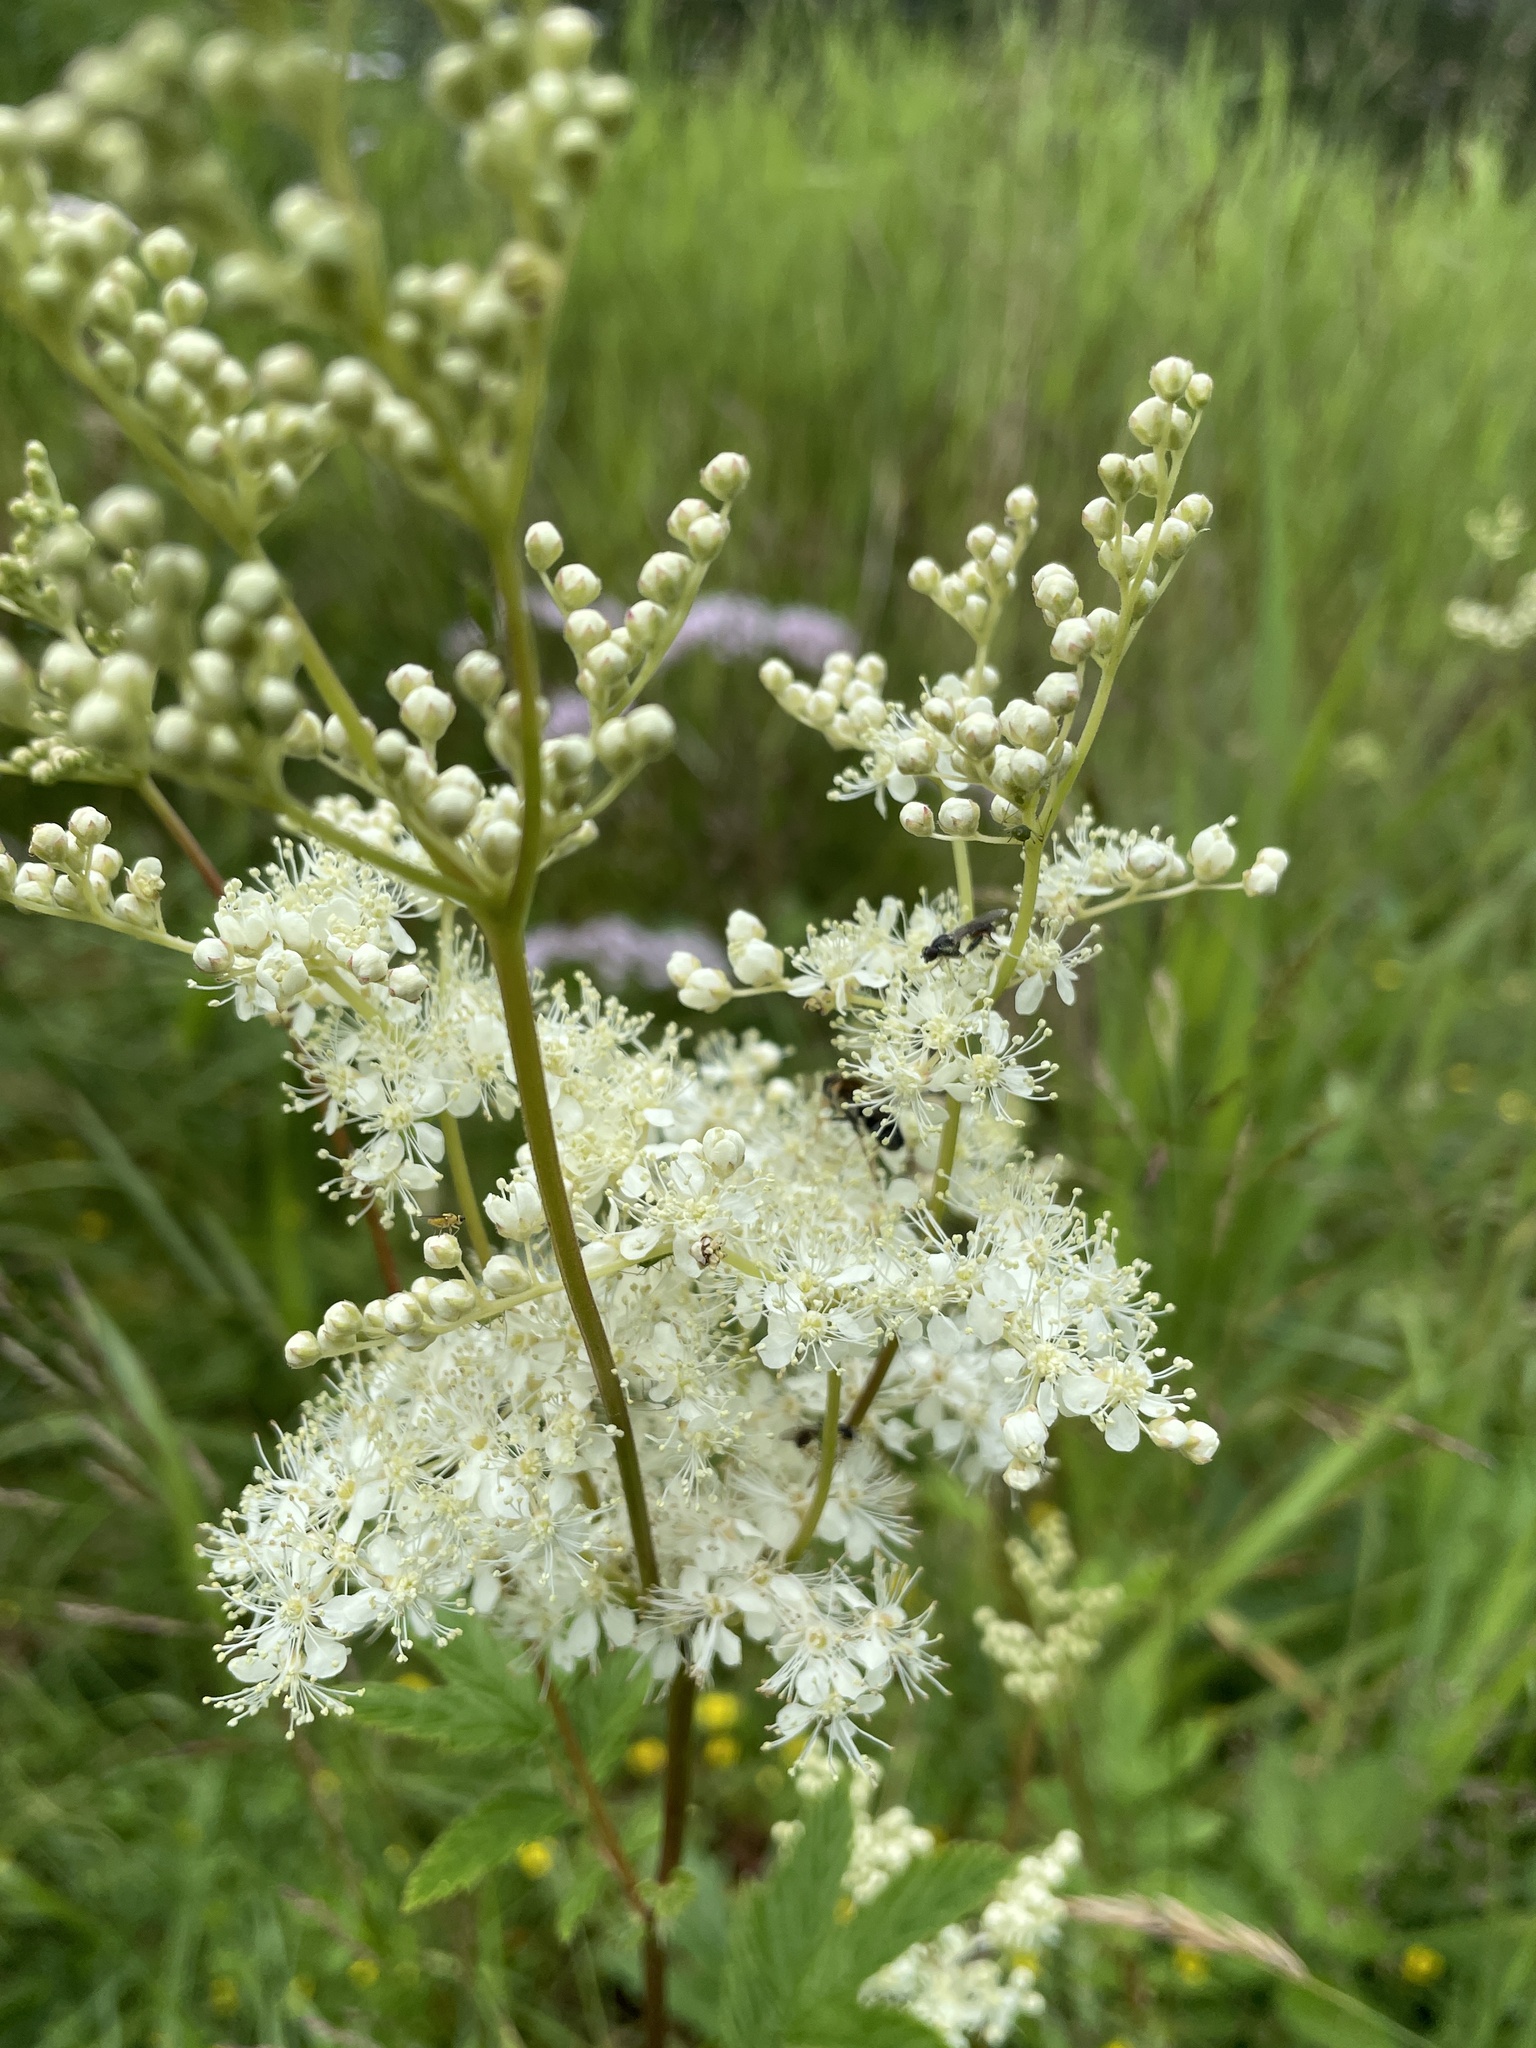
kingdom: Plantae
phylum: Tracheophyta
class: Magnoliopsida
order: Rosales
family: Rosaceae
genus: Filipendula
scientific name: Filipendula ulmaria
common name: Meadowsweet
